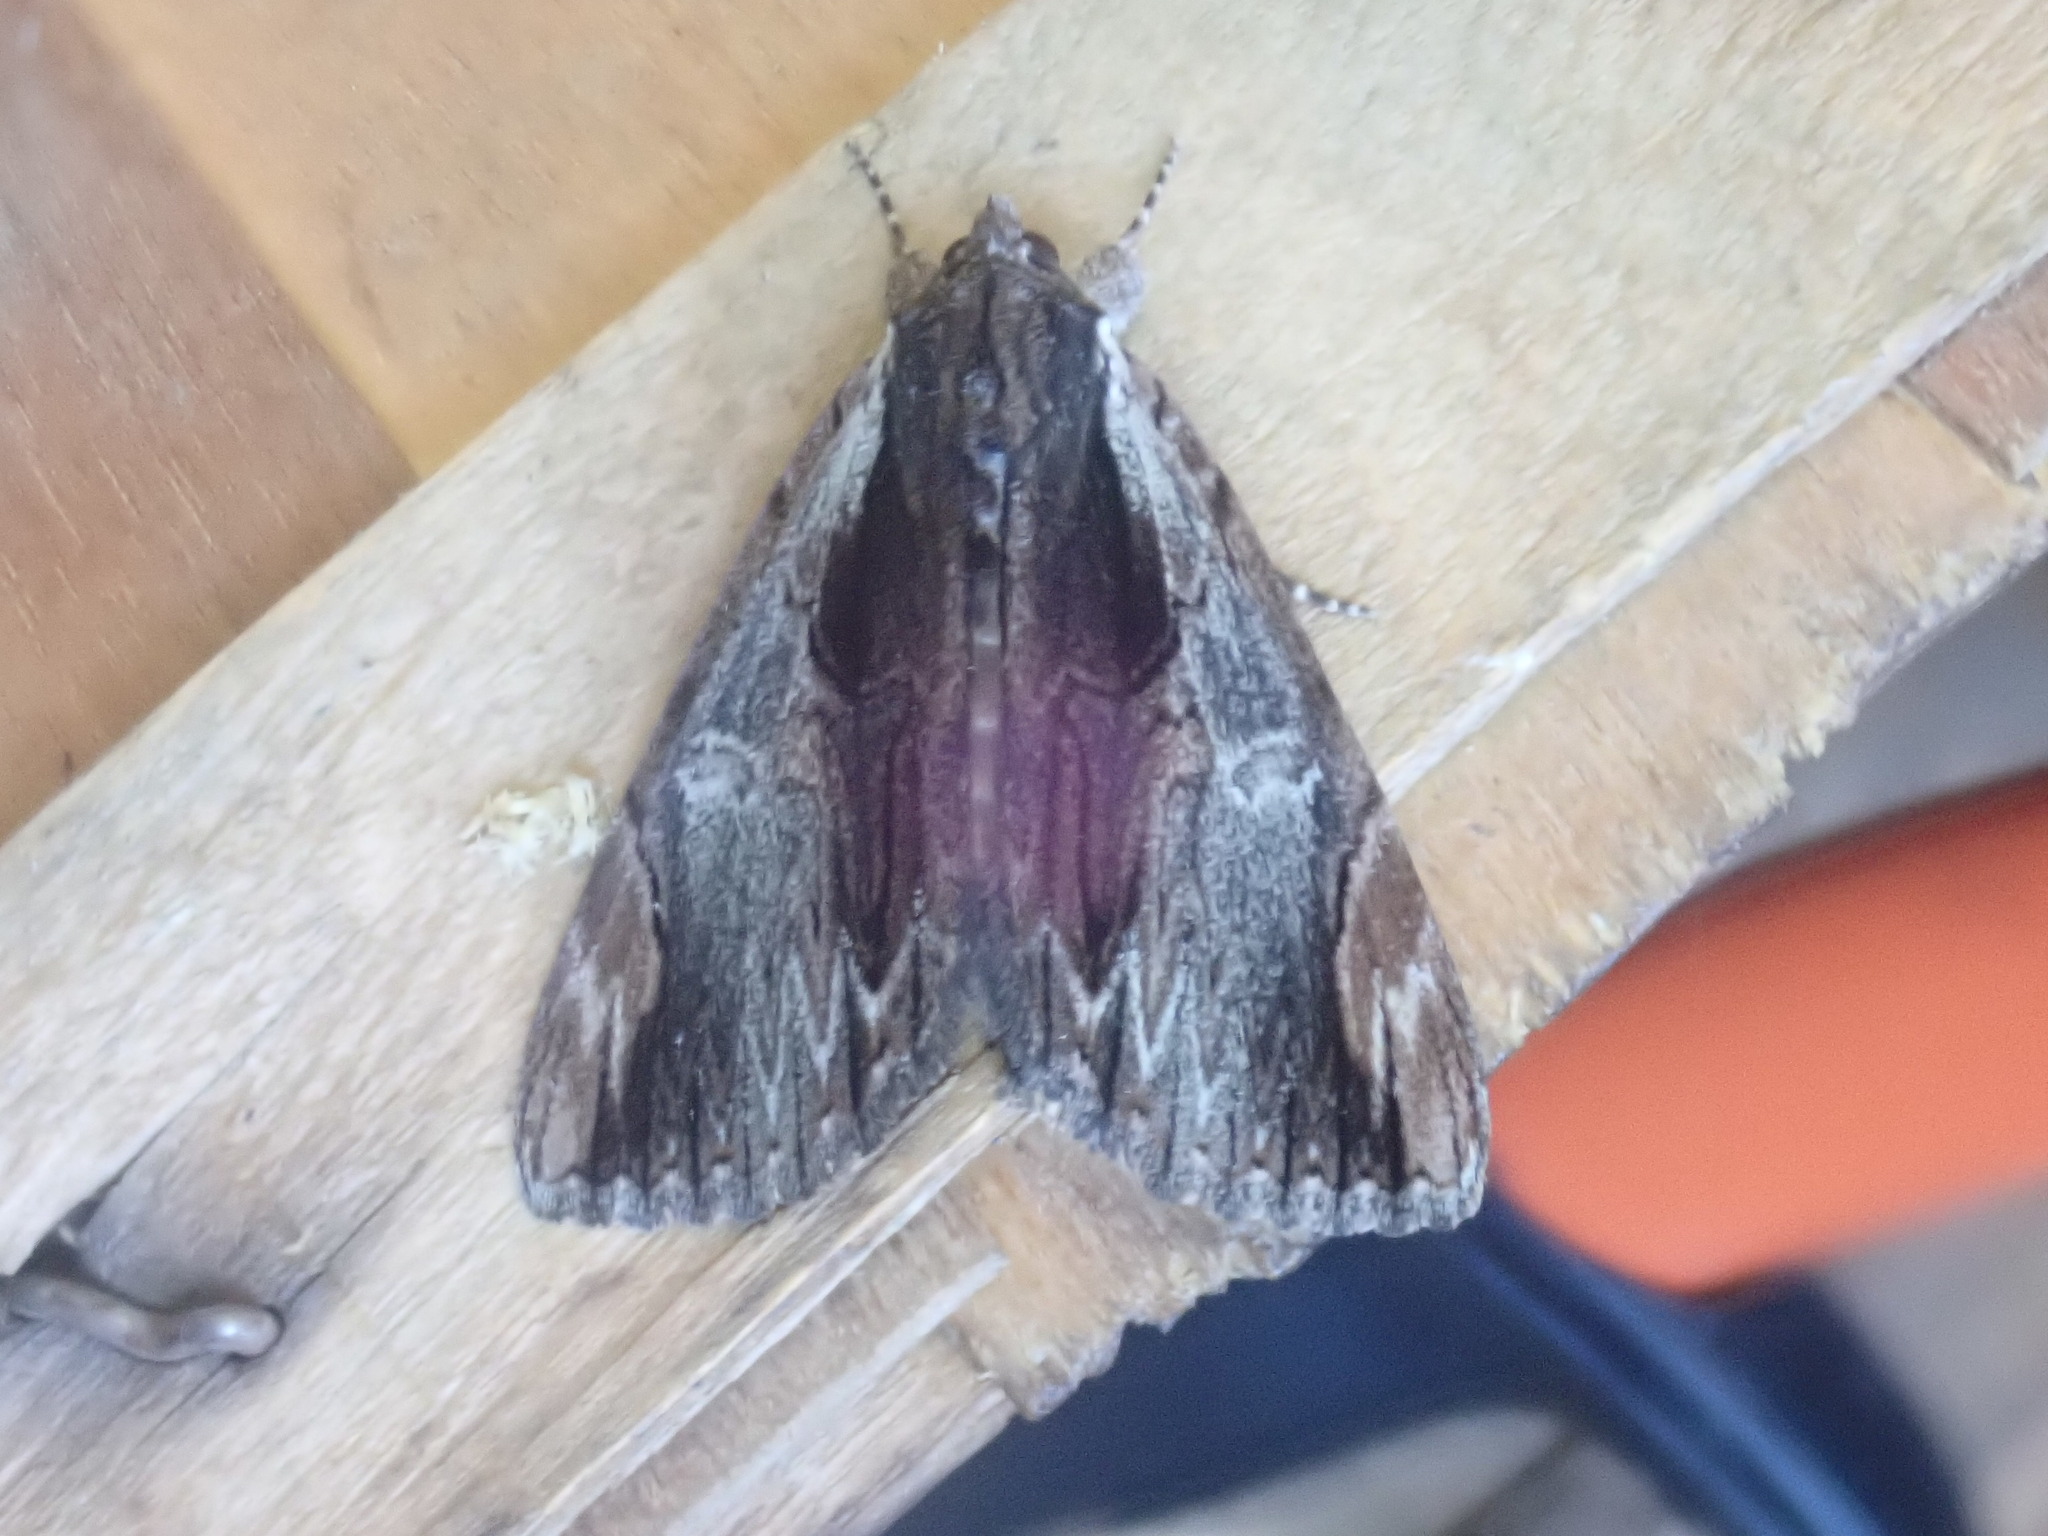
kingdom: Animalia
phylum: Arthropoda
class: Insecta
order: Lepidoptera
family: Erebidae
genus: Catocala
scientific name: Catocala ultronia
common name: Ultronia underwing
